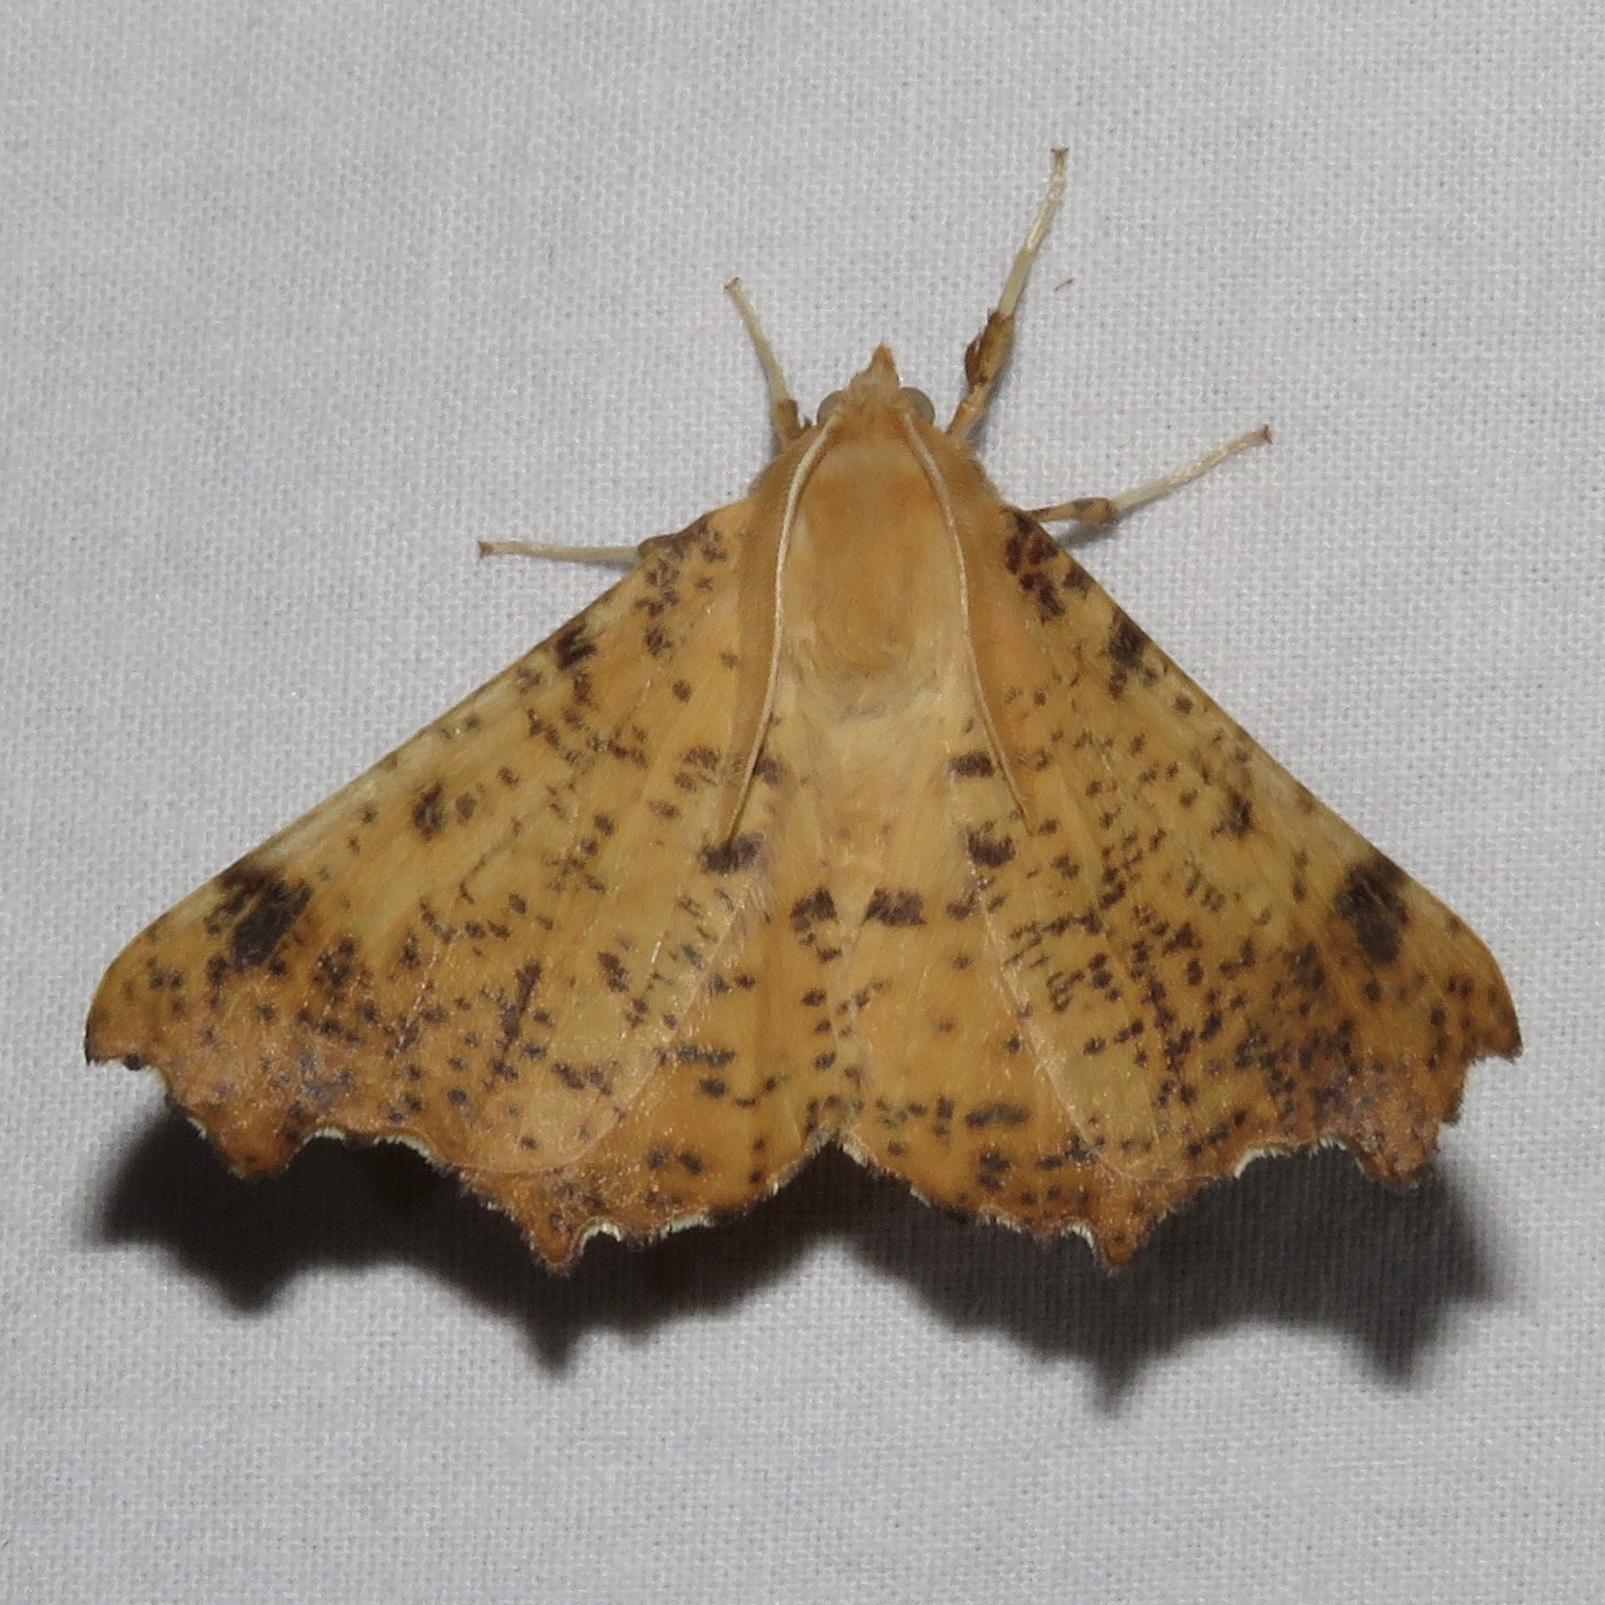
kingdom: Animalia
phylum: Arthropoda
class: Insecta
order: Lepidoptera
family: Geometridae
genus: Ennomos
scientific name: Ennomos magnaria
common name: Maple spanworm
